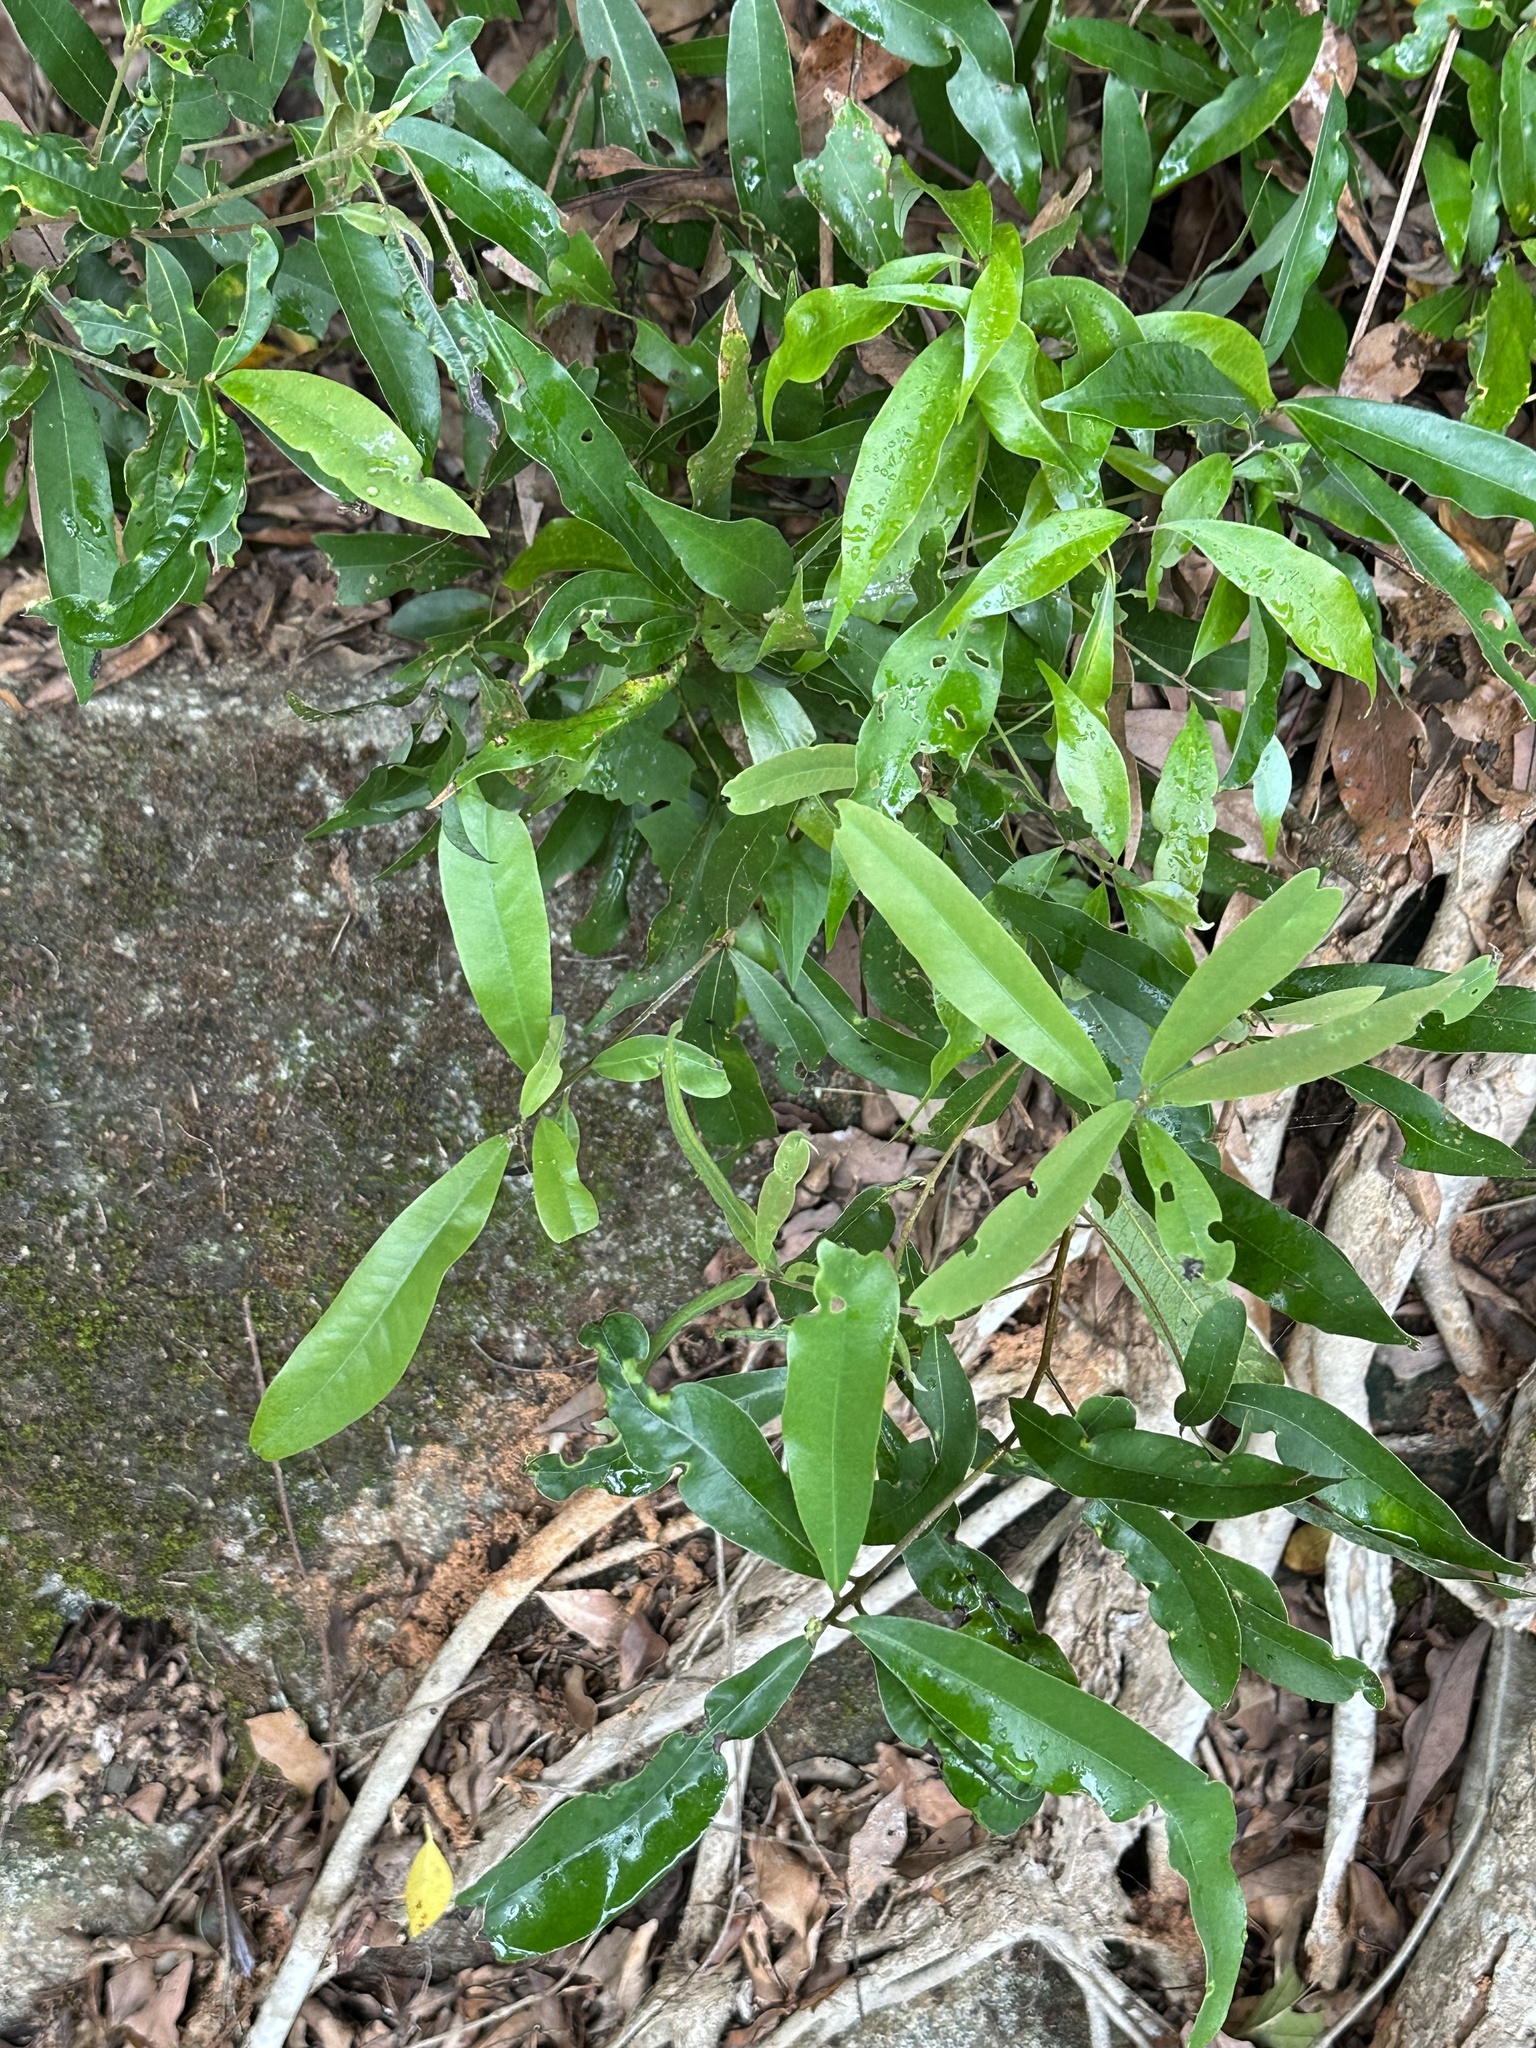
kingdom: Plantae
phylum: Tracheophyta
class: Magnoliopsida
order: Laurales
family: Lauraceae
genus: Litsea
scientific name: Litsea hypophaea
